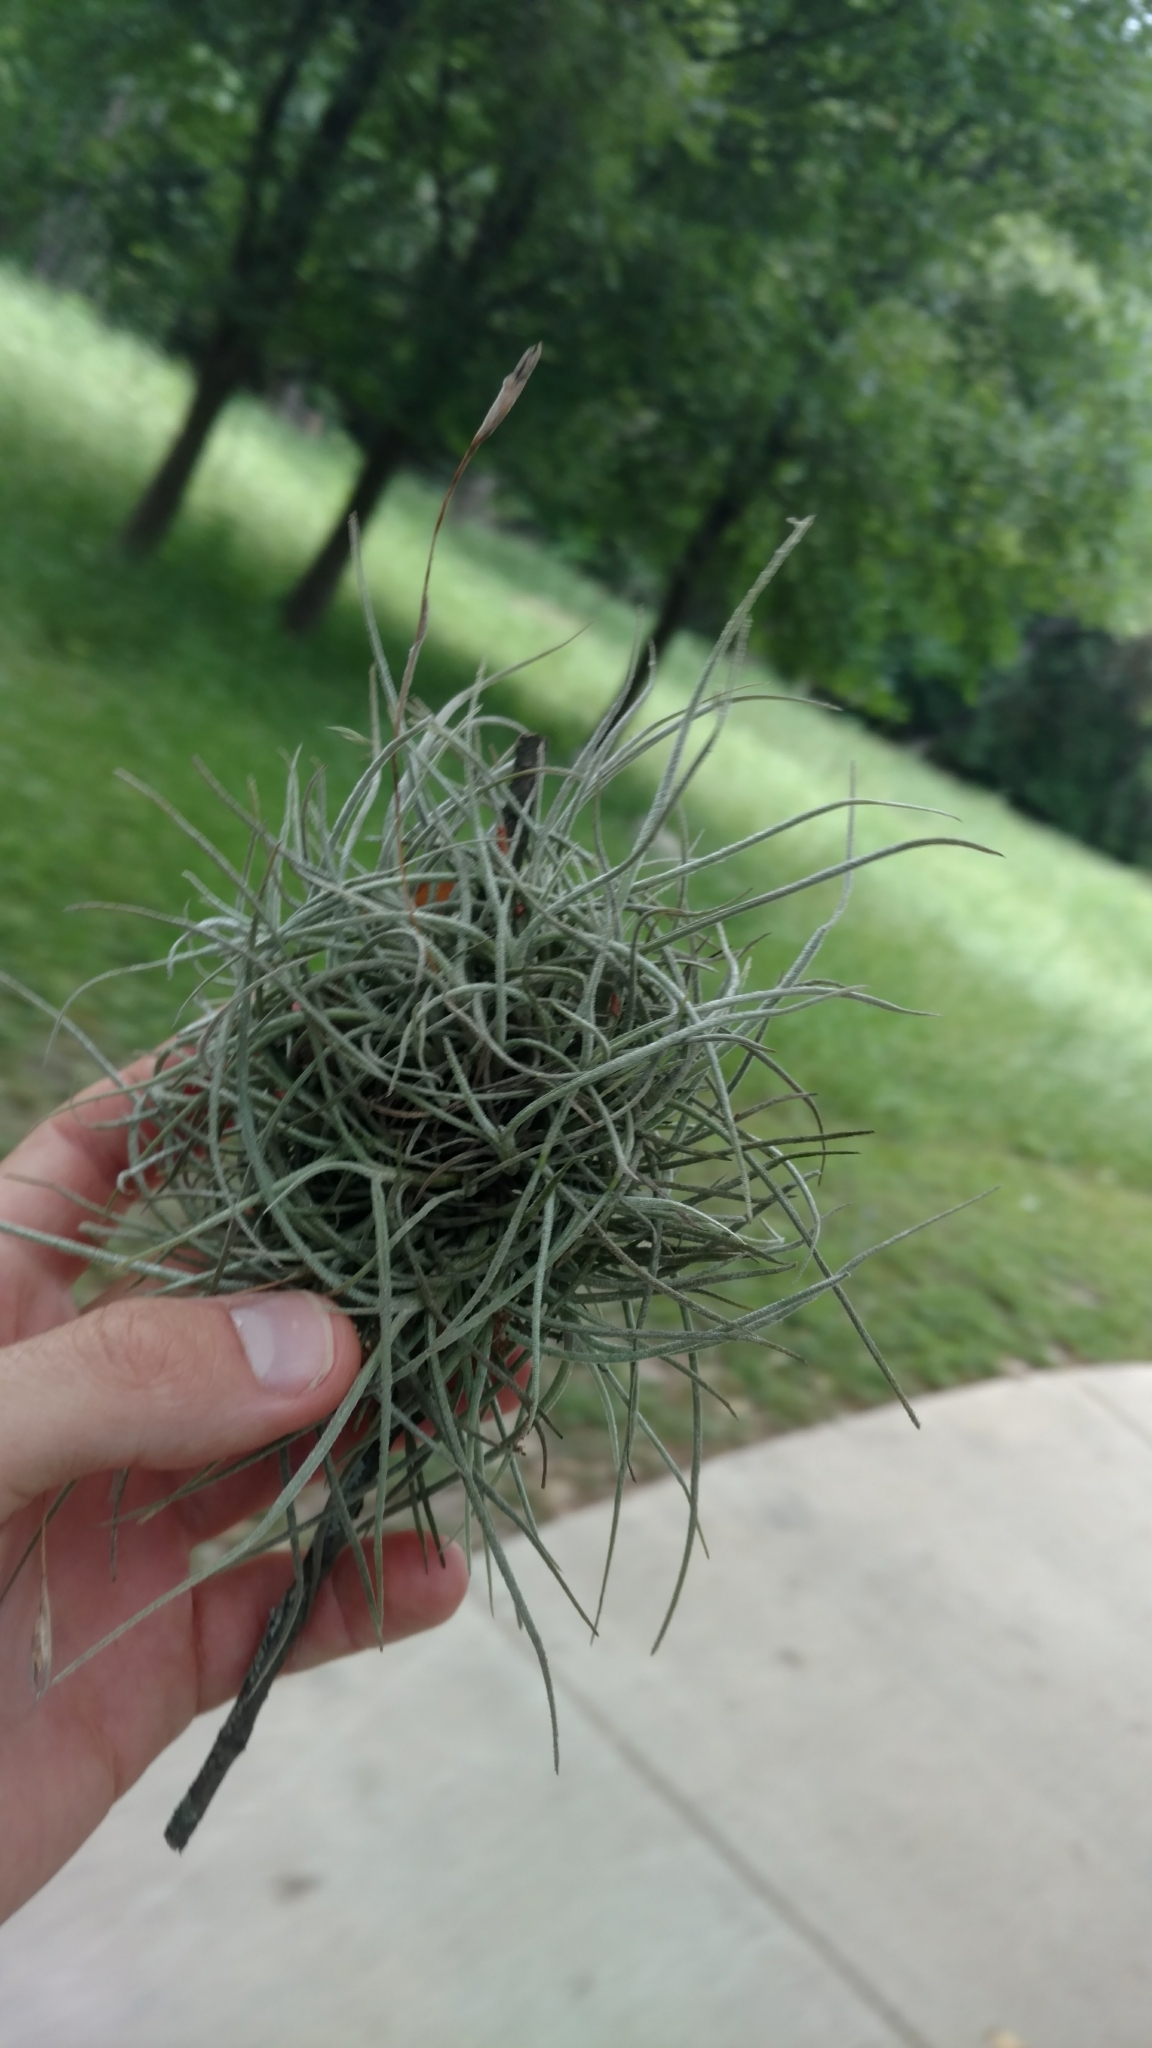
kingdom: Plantae
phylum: Tracheophyta
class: Liliopsida
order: Poales
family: Bromeliaceae
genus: Tillandsia
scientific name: Tillandsia recurvata
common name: Small ballmoss
